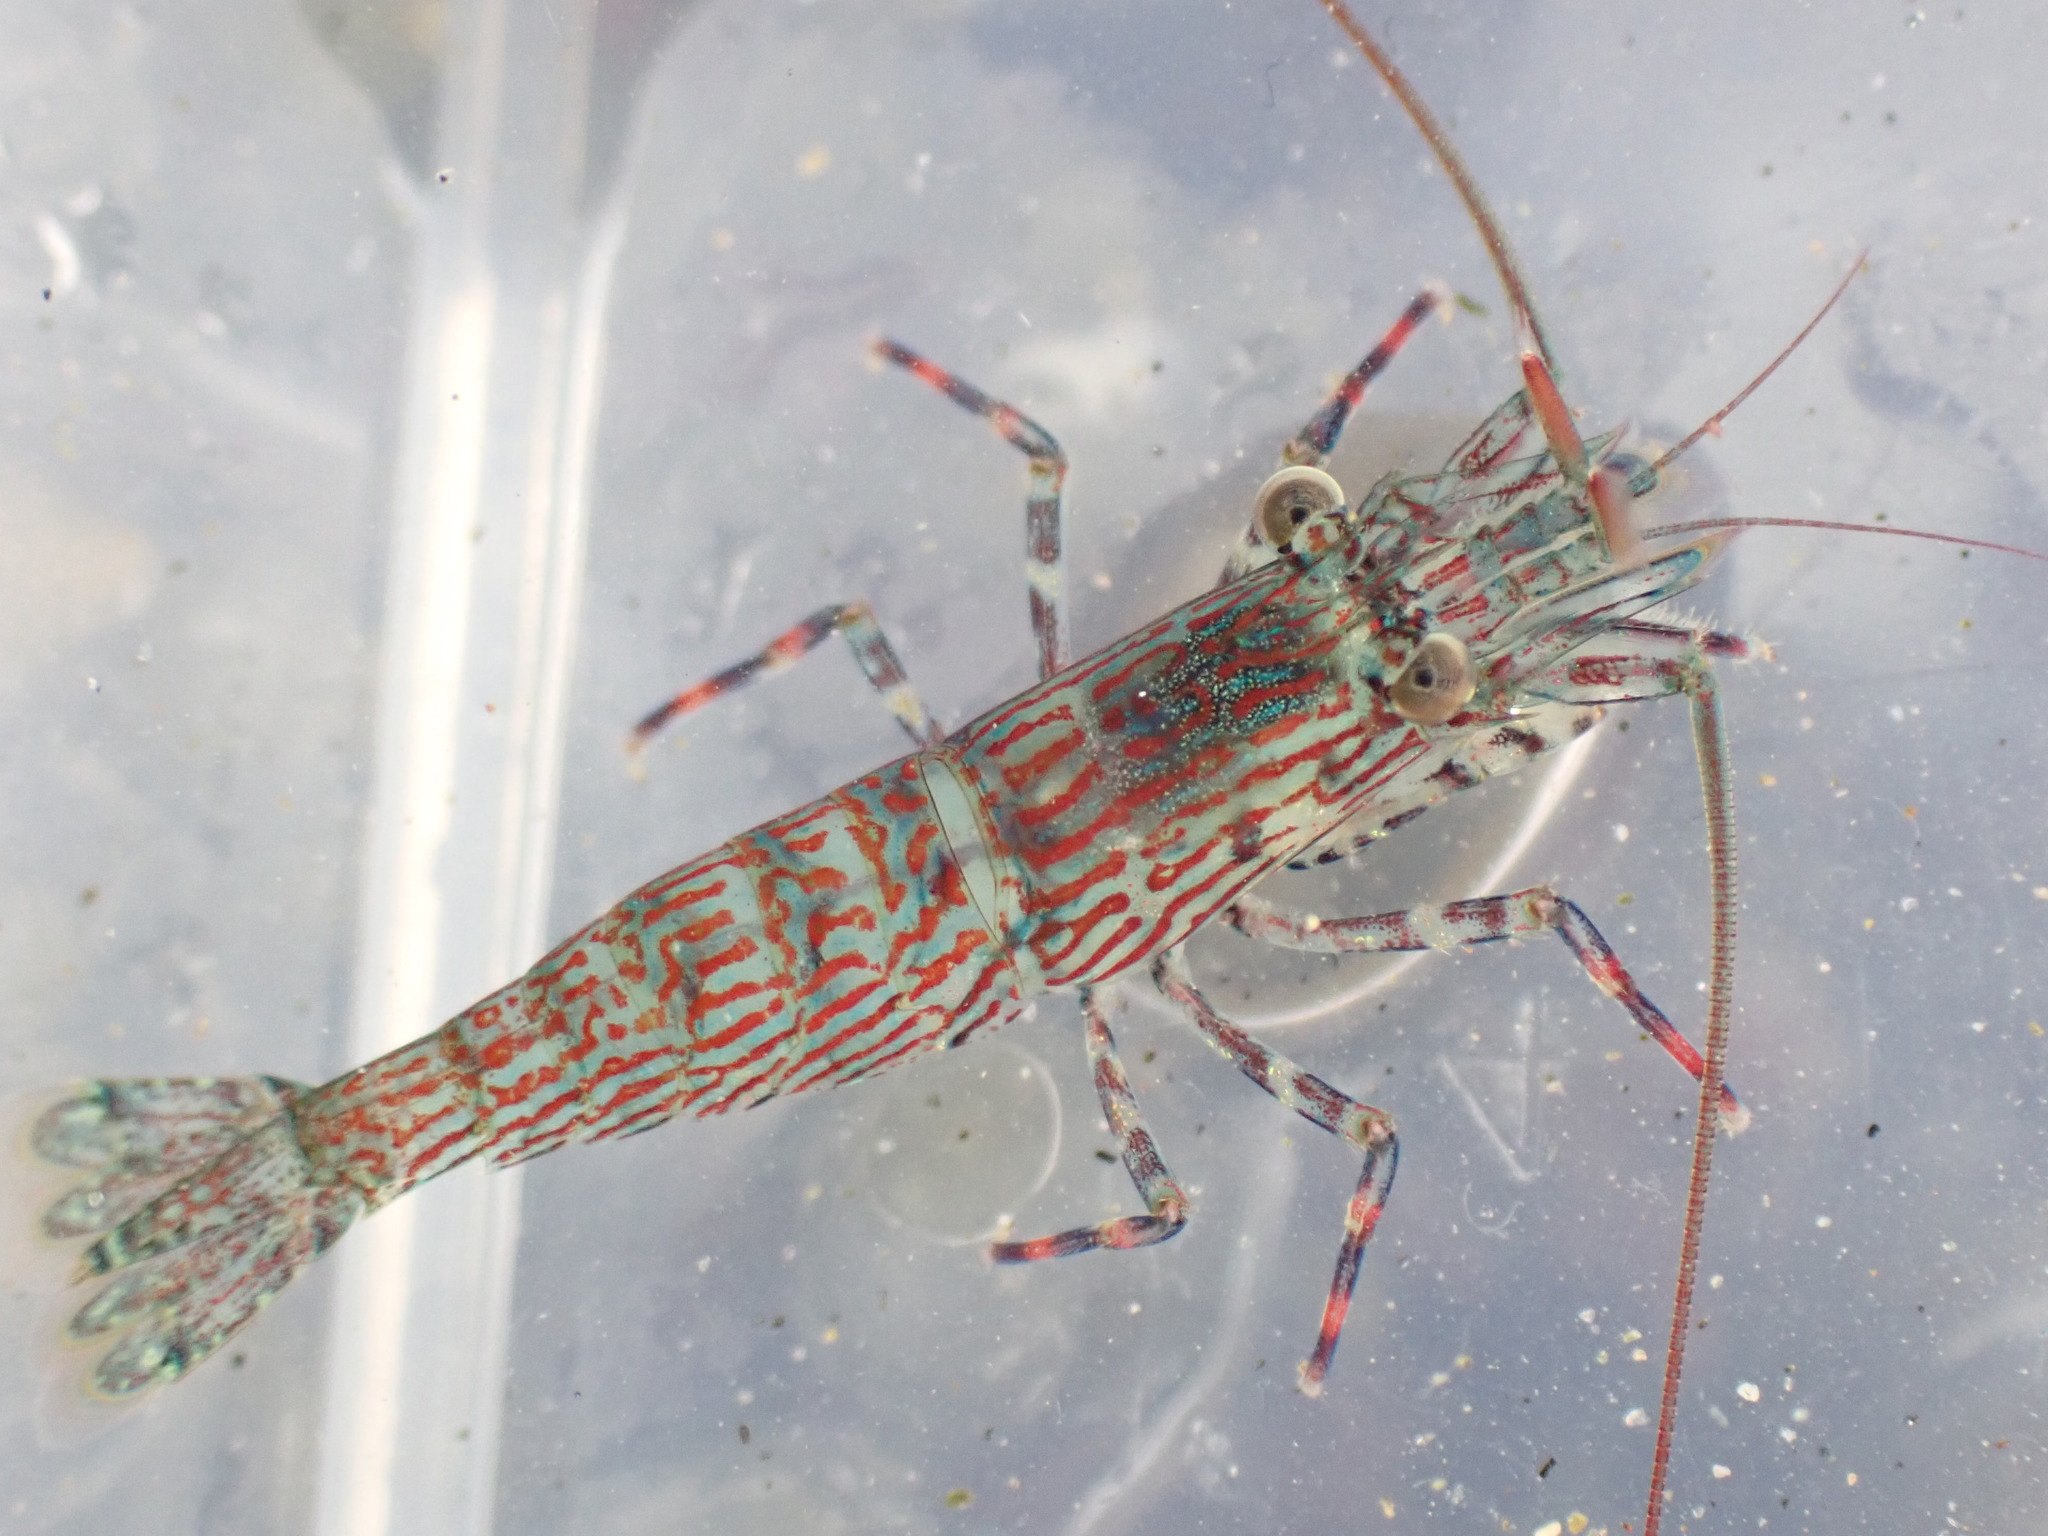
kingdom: Animalia
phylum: Arthropoda
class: Malacostraca
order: Decapoda
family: Hippolytidae
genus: Alope
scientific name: Alope spinifrons
